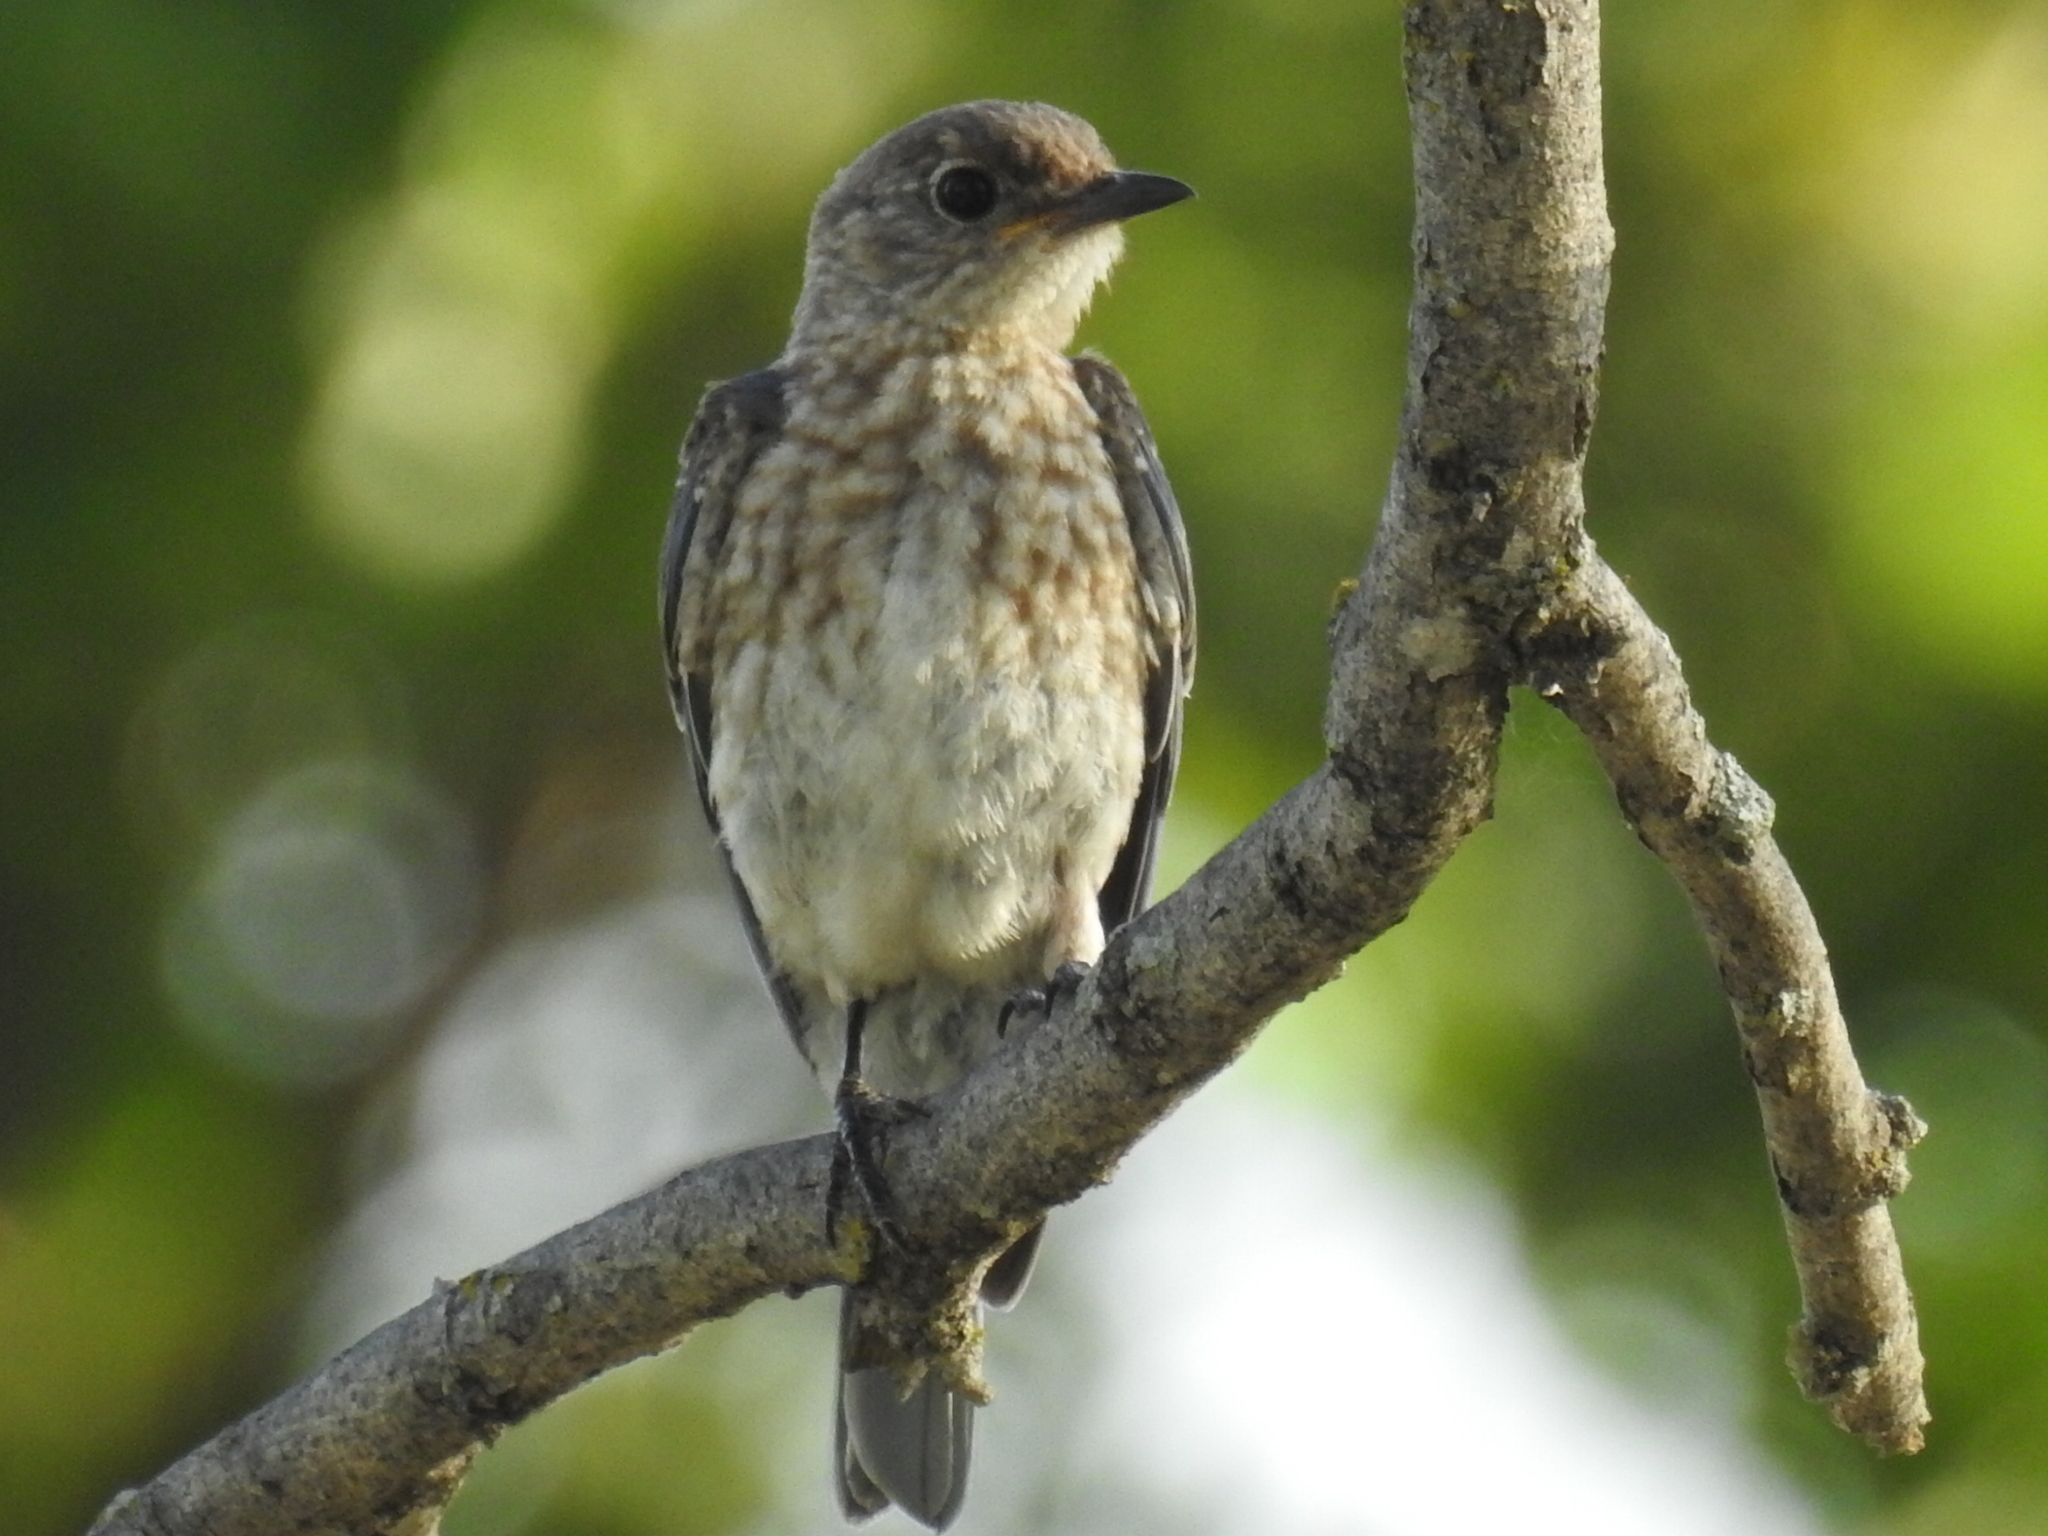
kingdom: Animalia
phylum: Chordata
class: Aves
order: Passeriformes
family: Turdidae
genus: Sialia
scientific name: Sialia sialis
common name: Eastern bluebird
